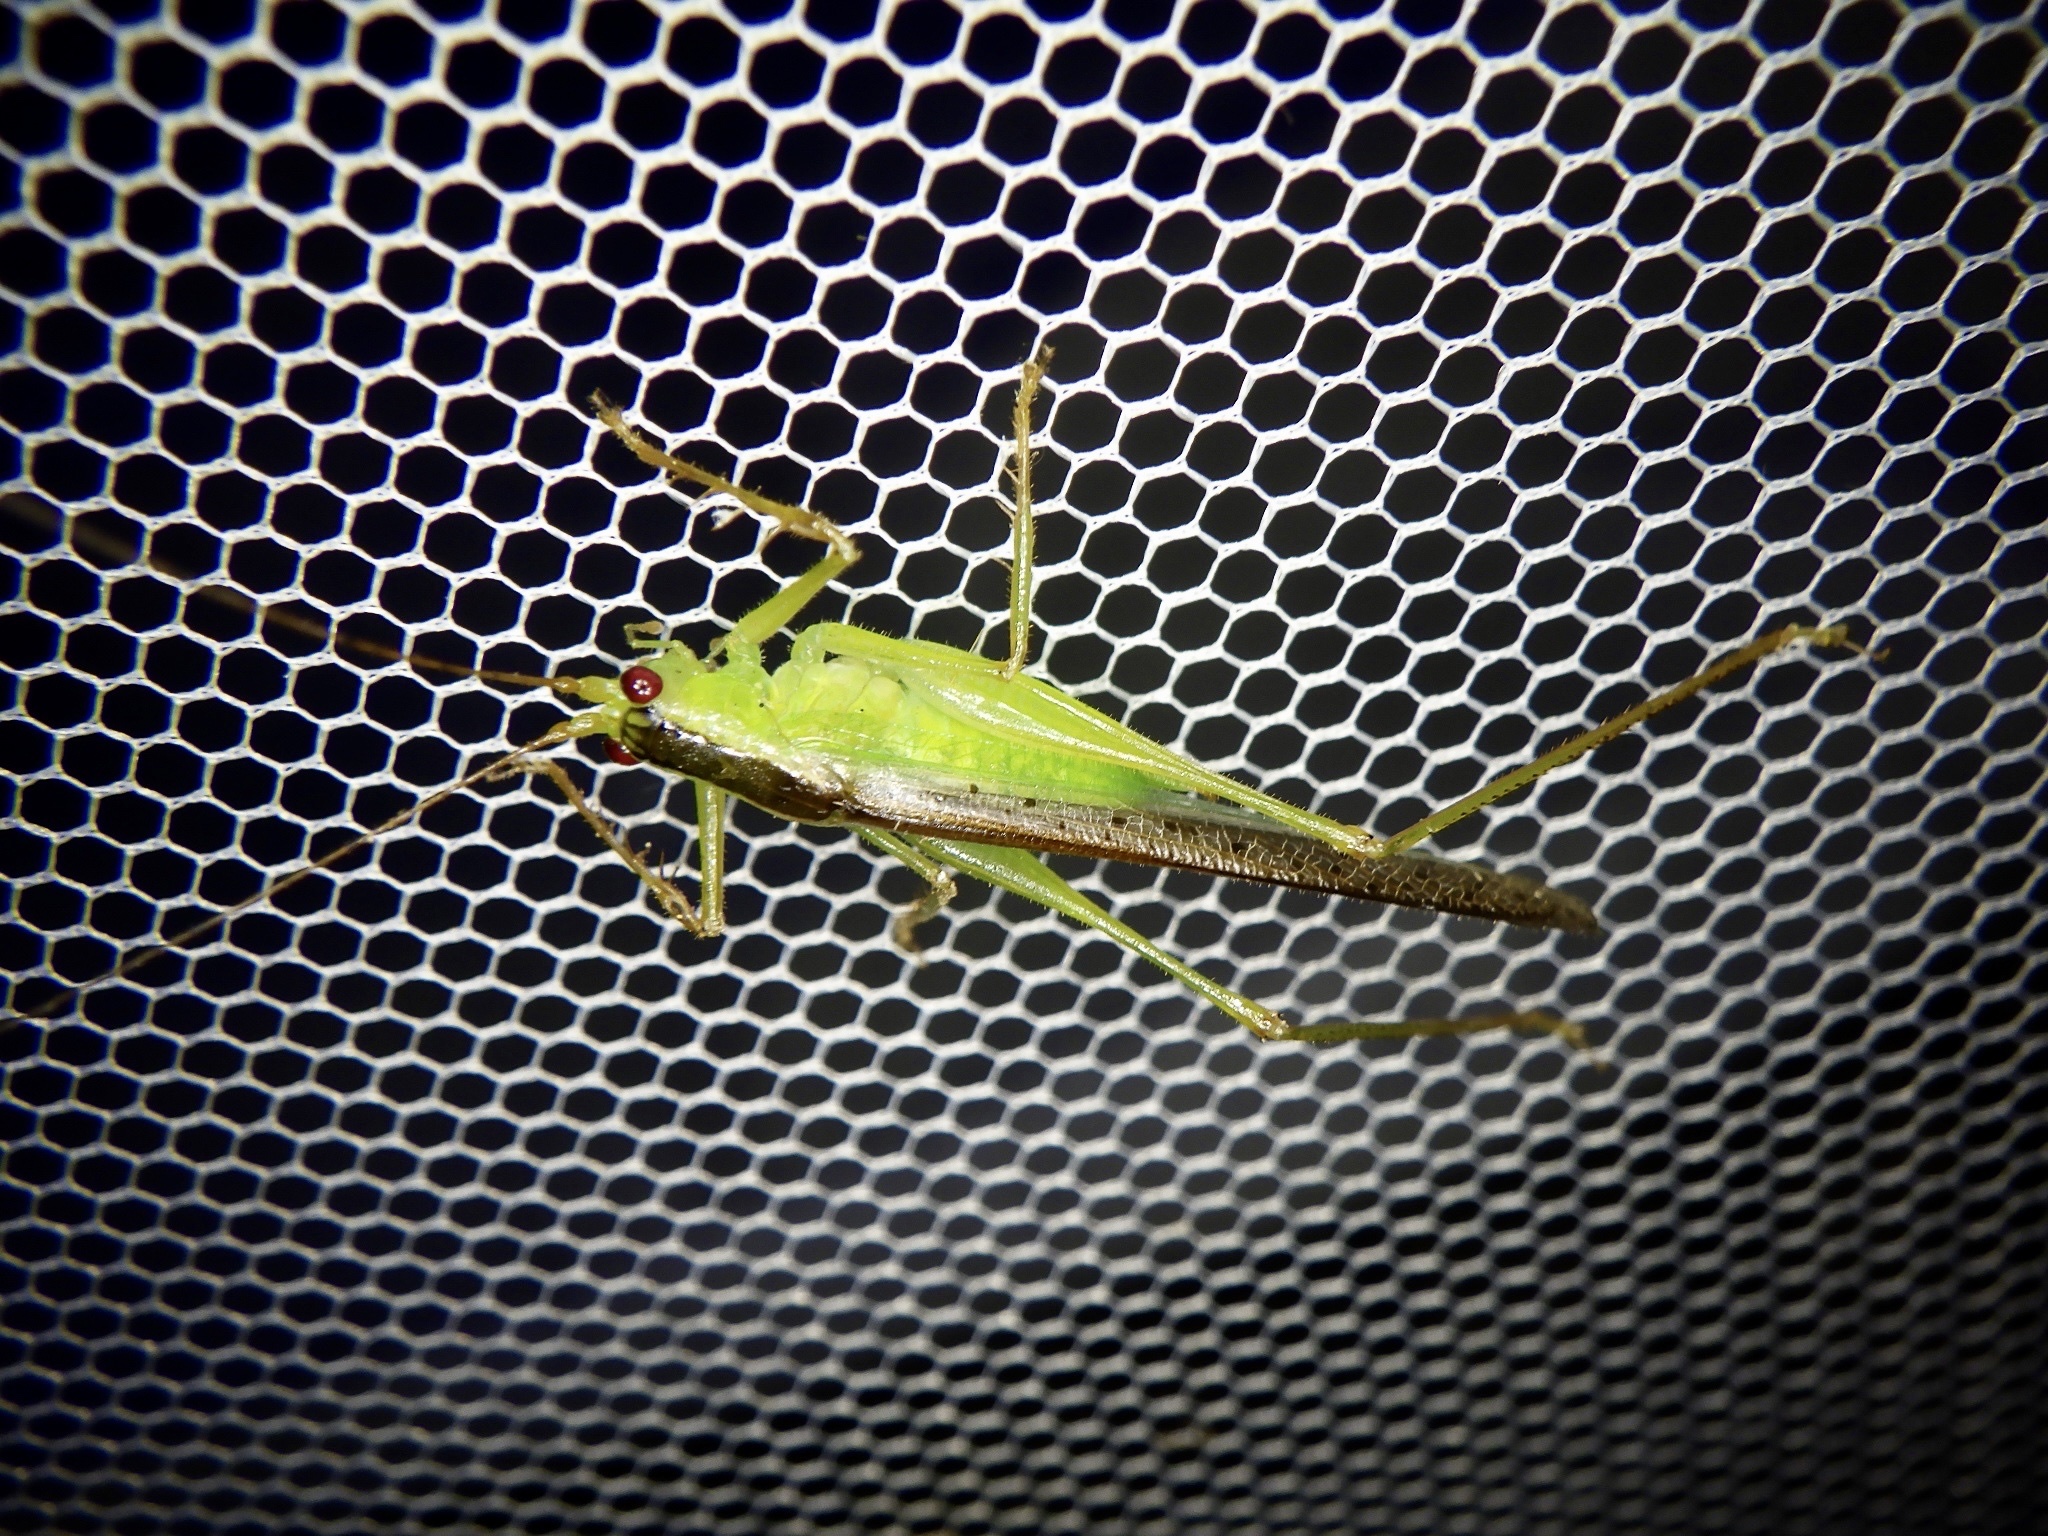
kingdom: Animalia
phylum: Arthropoda
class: Insecta
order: Orthoptera
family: Tettigoniidae
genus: Xiphidiopsis
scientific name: Xiphidiopsis subpunctata
